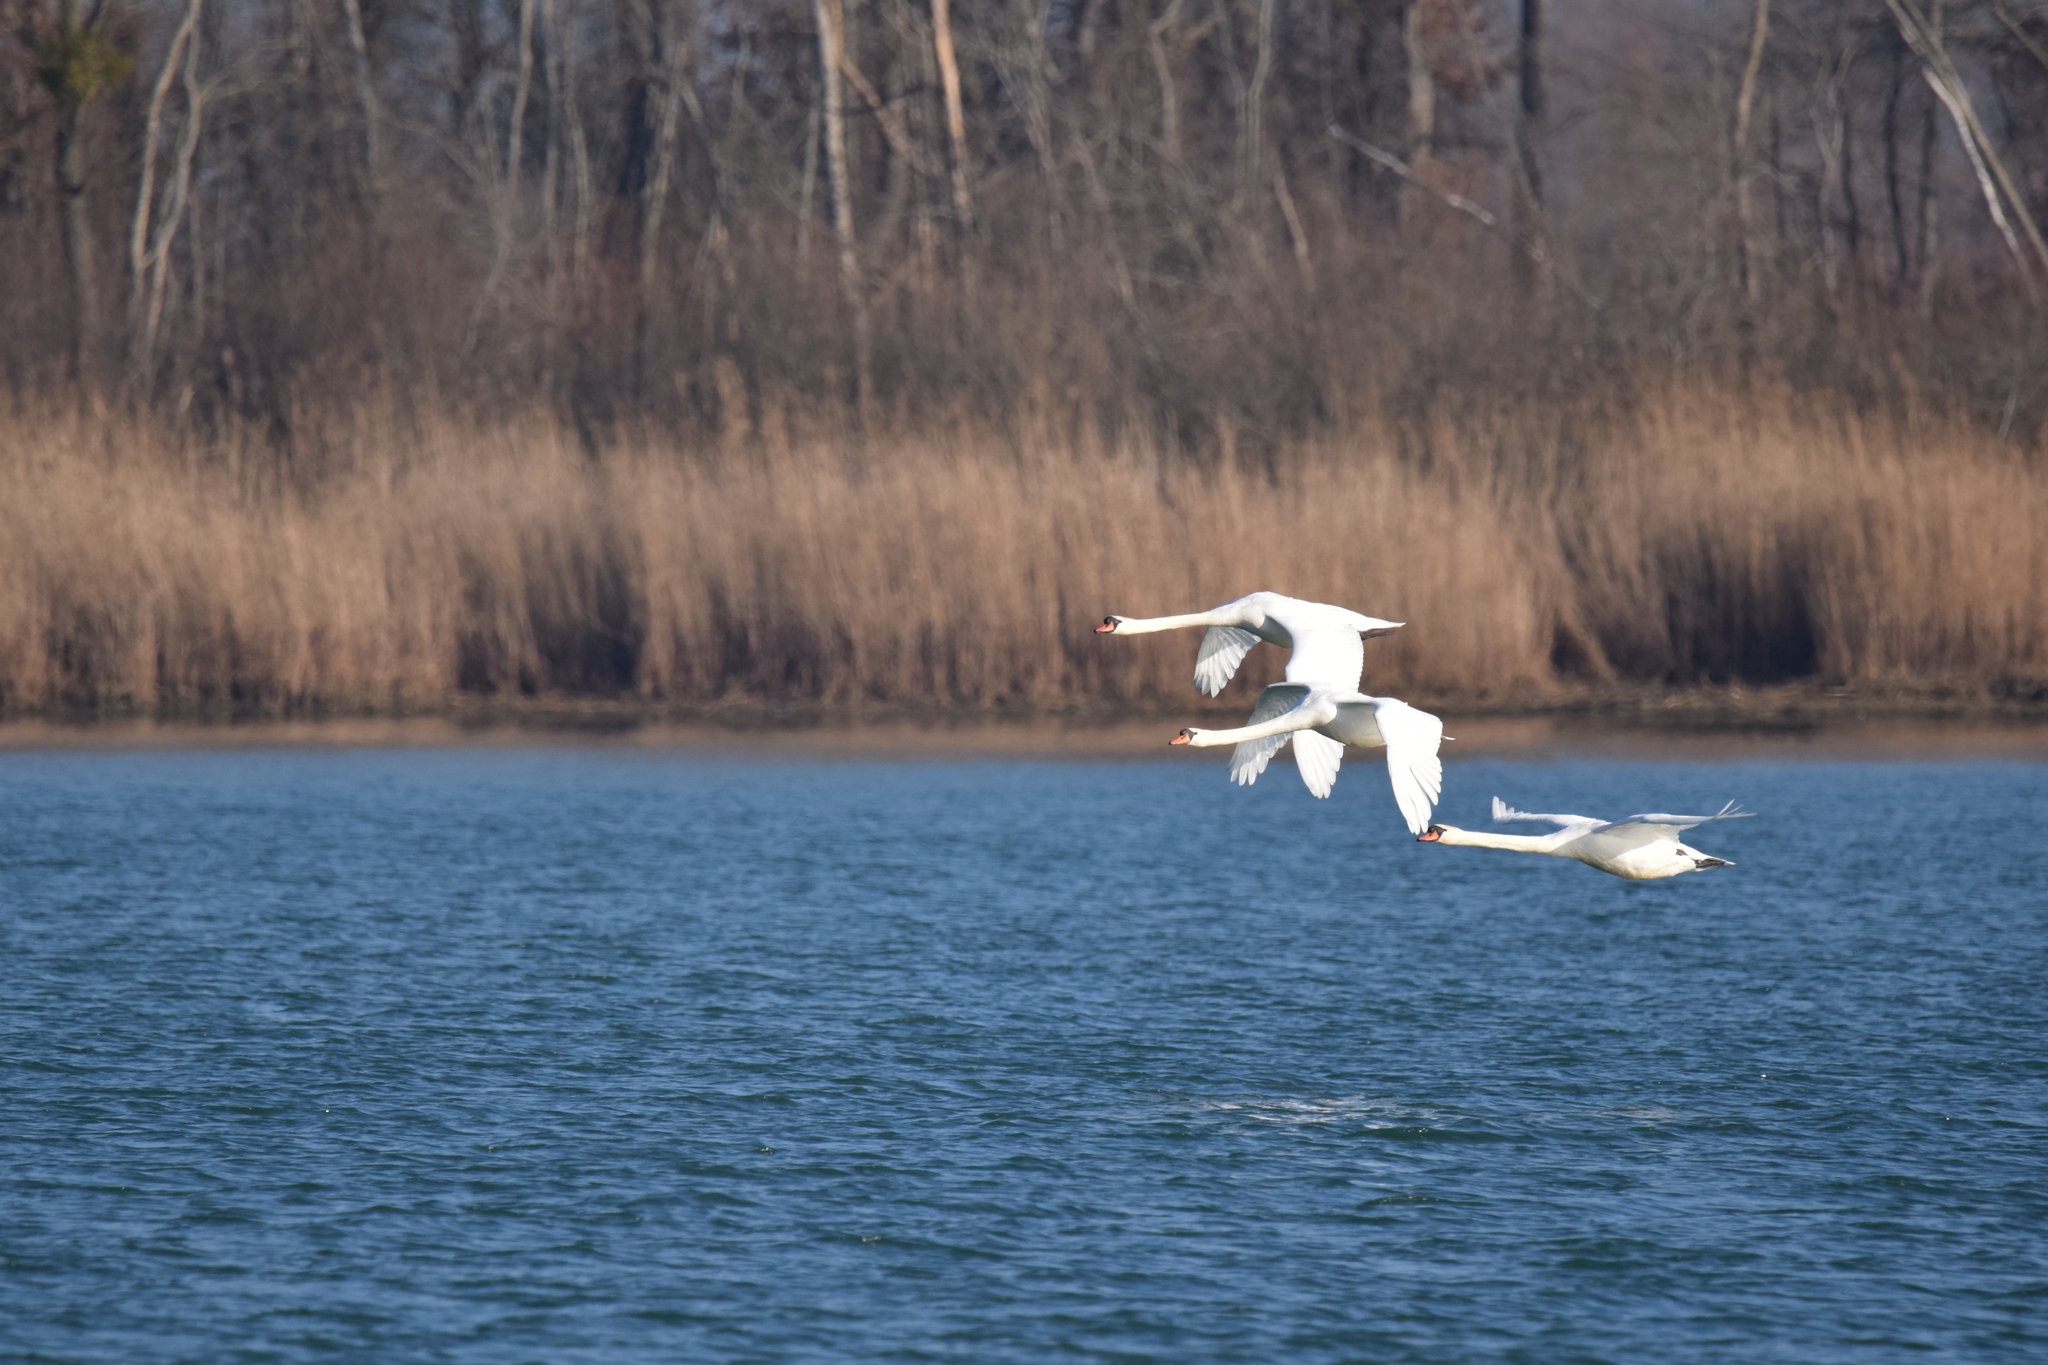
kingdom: Animalia
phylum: Chordata
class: Aves
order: Anseriformes
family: Anatidae
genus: Cygnus
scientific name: Cygnus olor
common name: Mute swan
